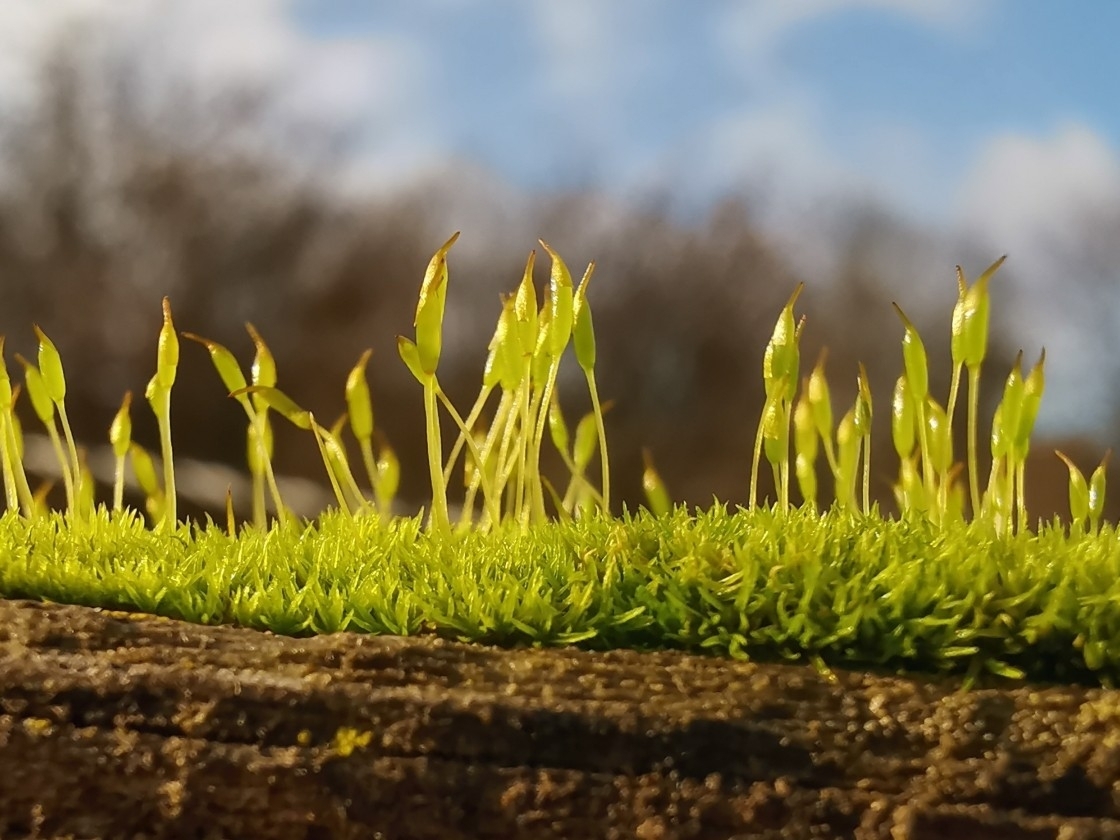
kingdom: Plantae
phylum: Bryophyta
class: Bryopsida
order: Dicranales
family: Rhabdoweisiaceae
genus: Dicranoweisia
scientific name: Dicranoweisia cirrata
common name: Common pincushion
